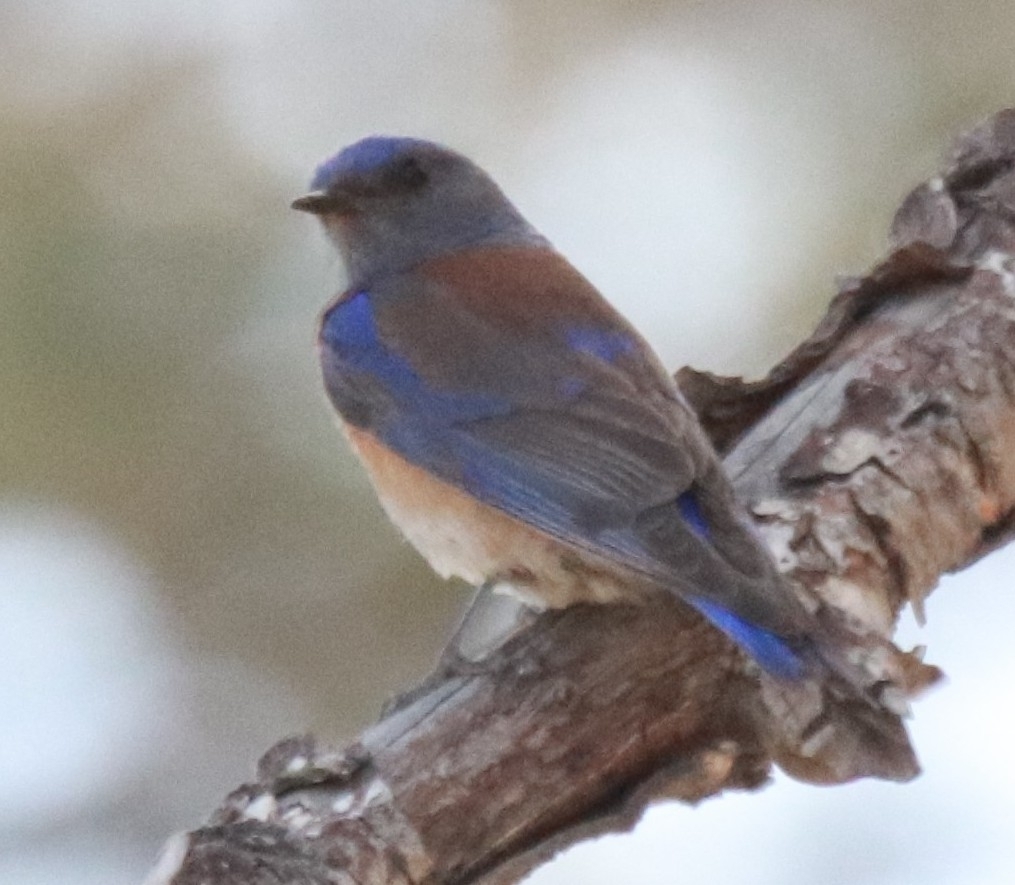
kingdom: Animalia
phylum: Chordata
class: Aves
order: Passeriformes
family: Turdidae
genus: Sialia
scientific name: Sialia mexicana
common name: Western bluebird
